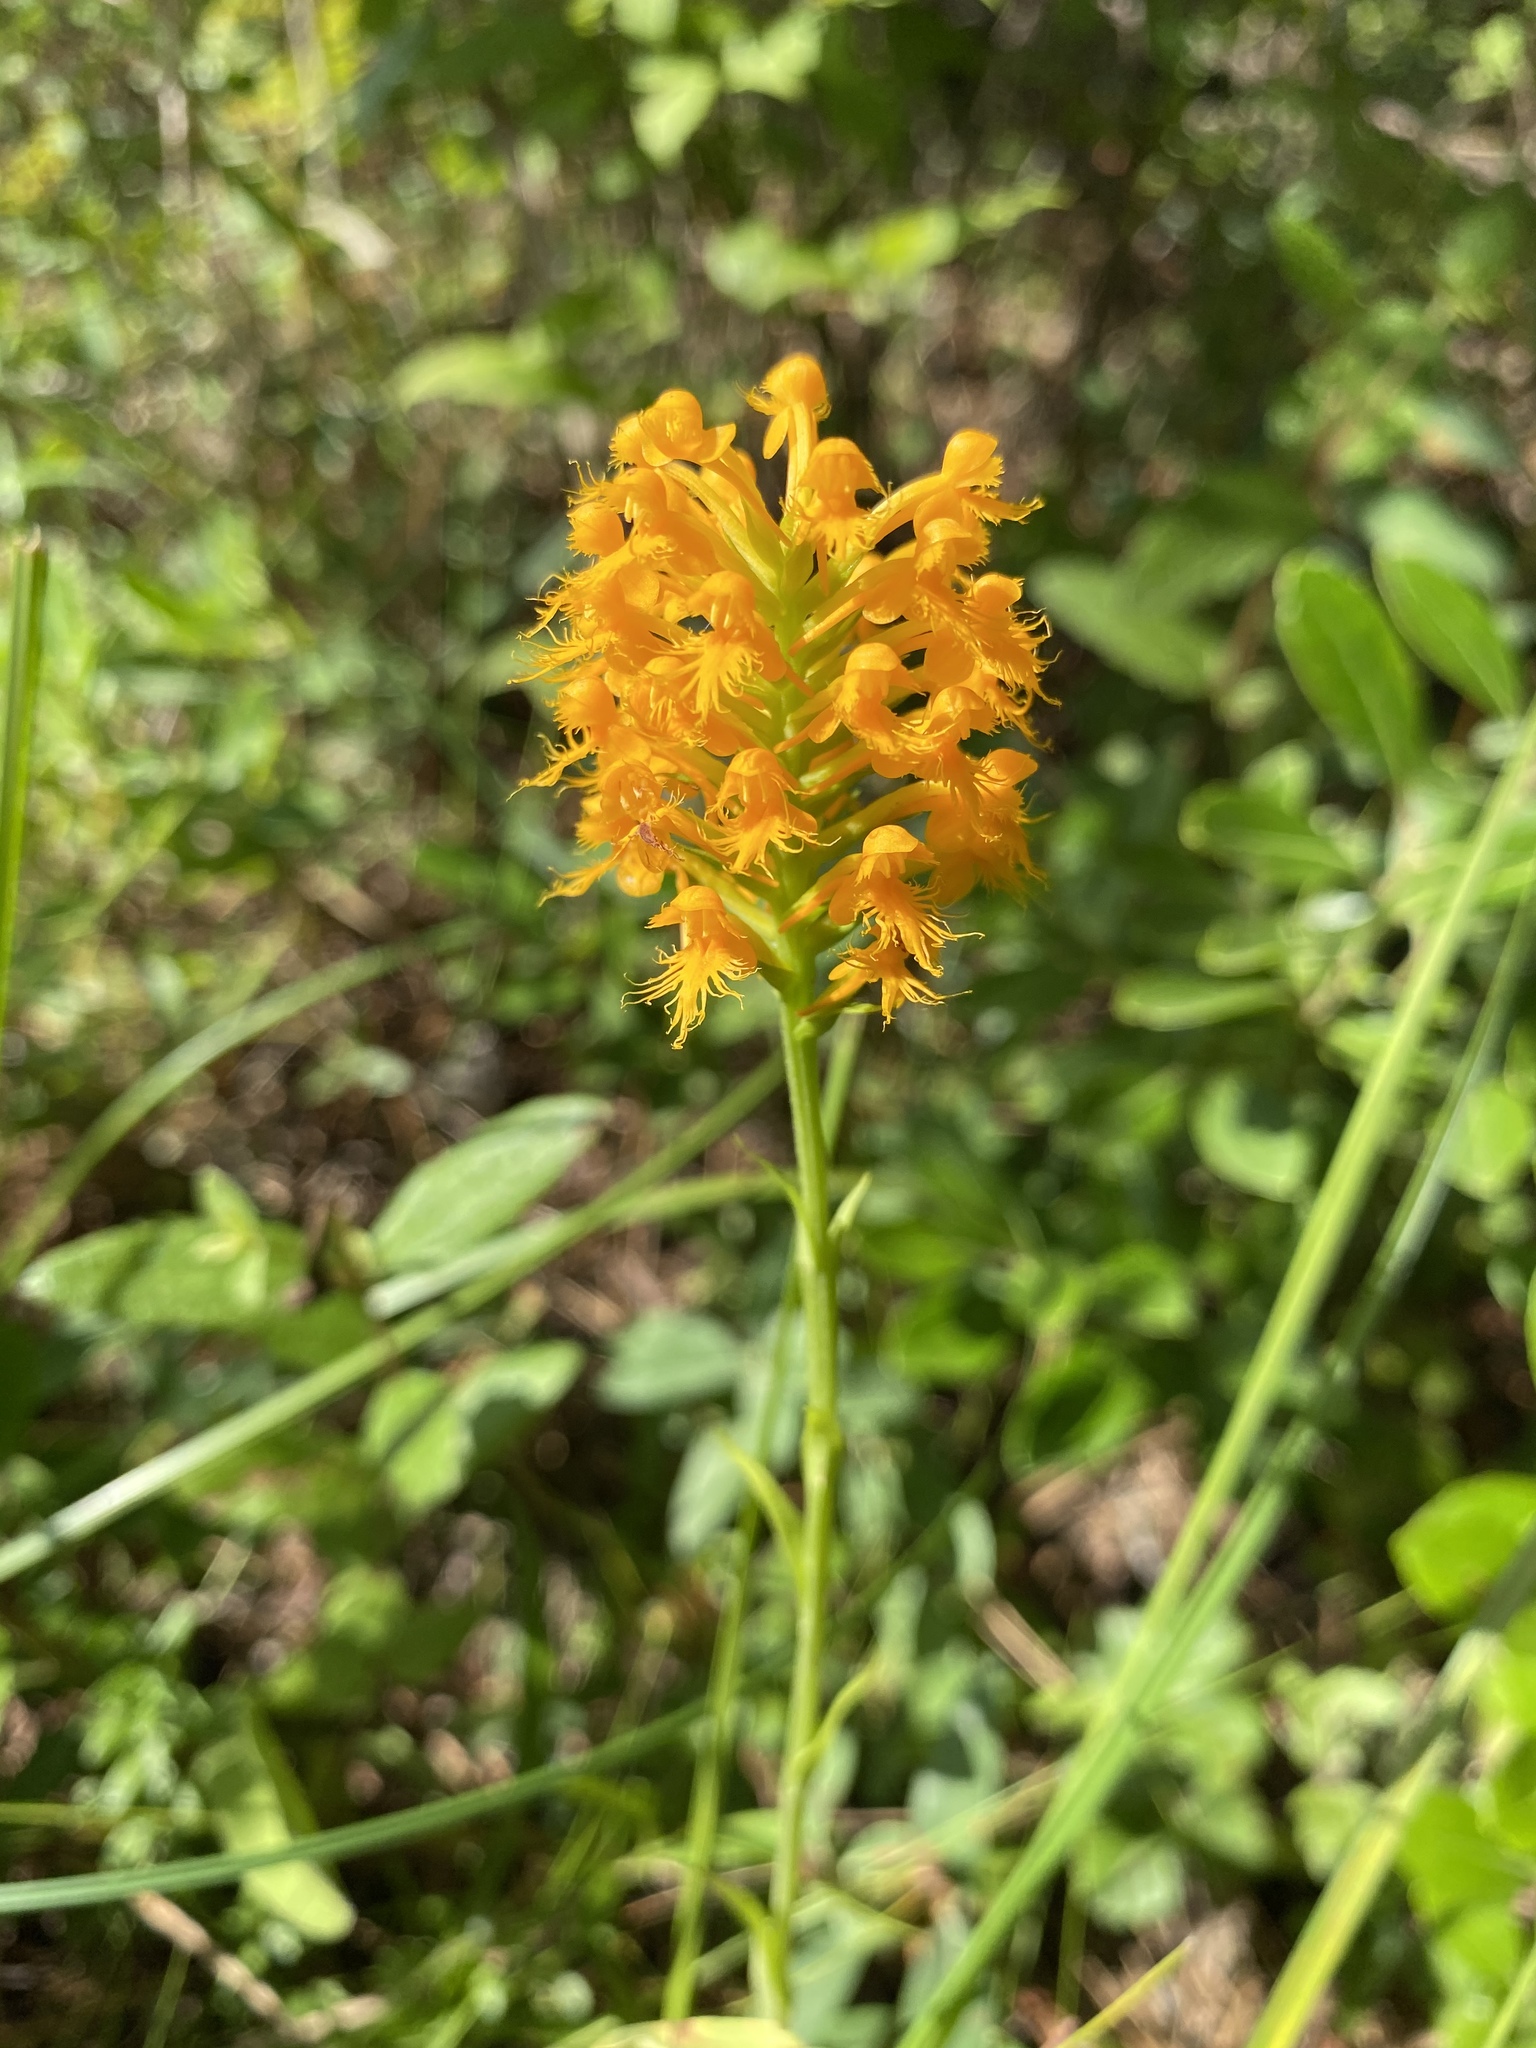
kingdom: Plantae
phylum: Tracheophyta
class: Liliopsida
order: Asparagales
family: Orchidaceae
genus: Platanthera
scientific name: Platanthera cristata
